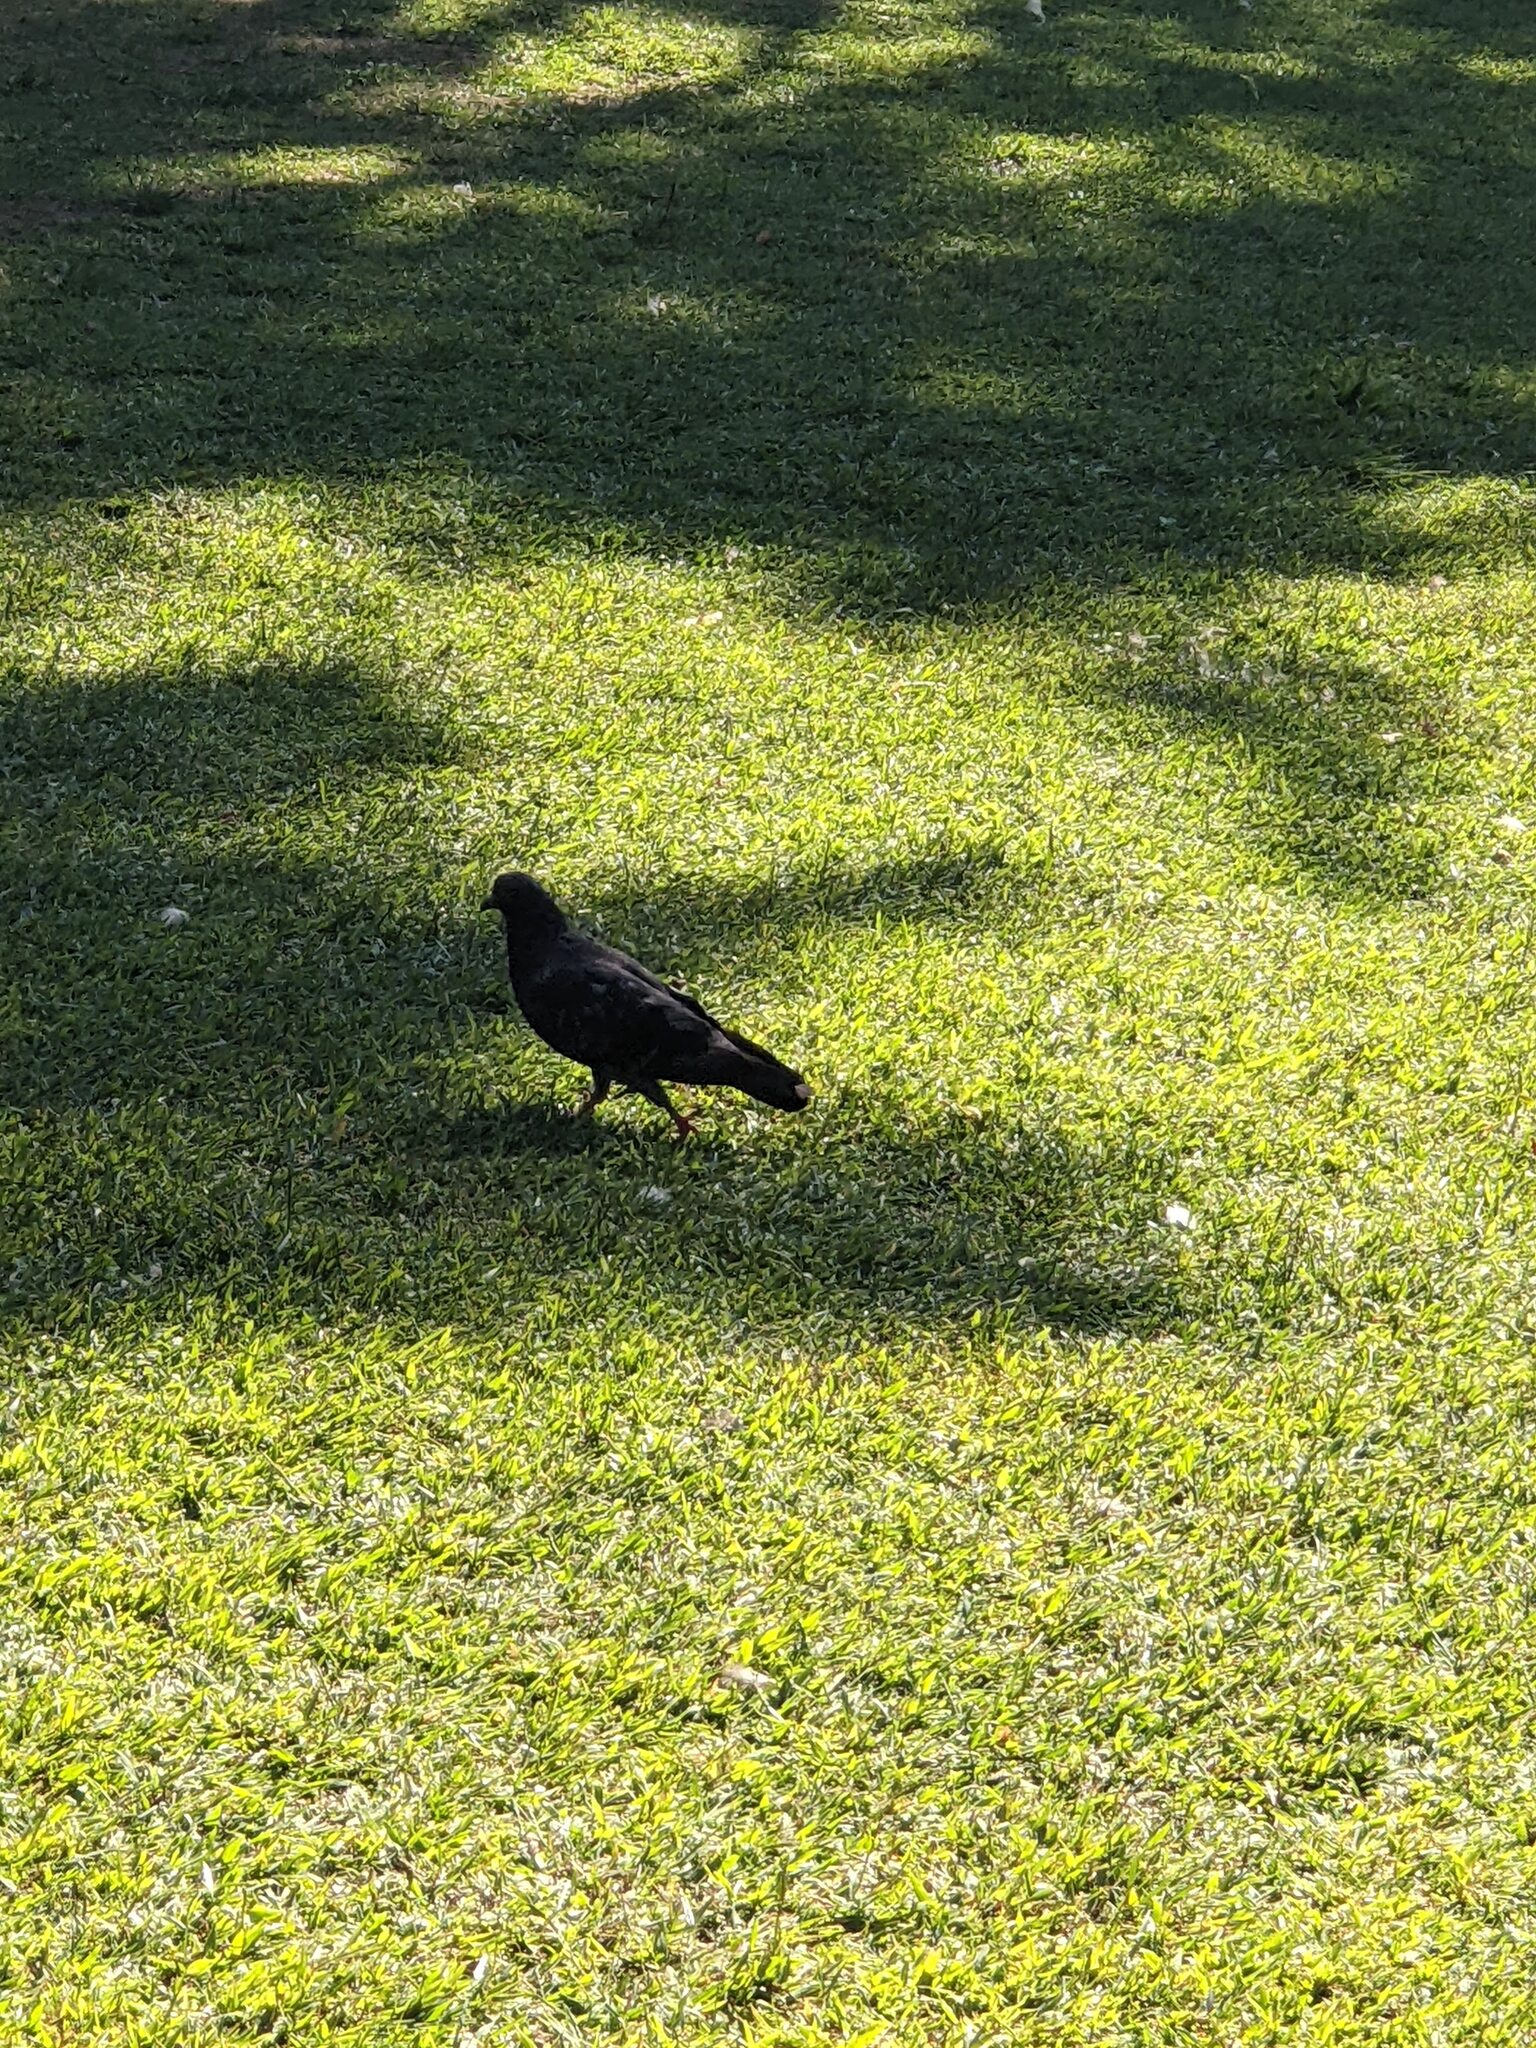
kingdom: Animalia
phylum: Chordata
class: Aves
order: Columbiformes
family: Columbidae
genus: Columba
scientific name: Columba livia
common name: Rock pigeon
